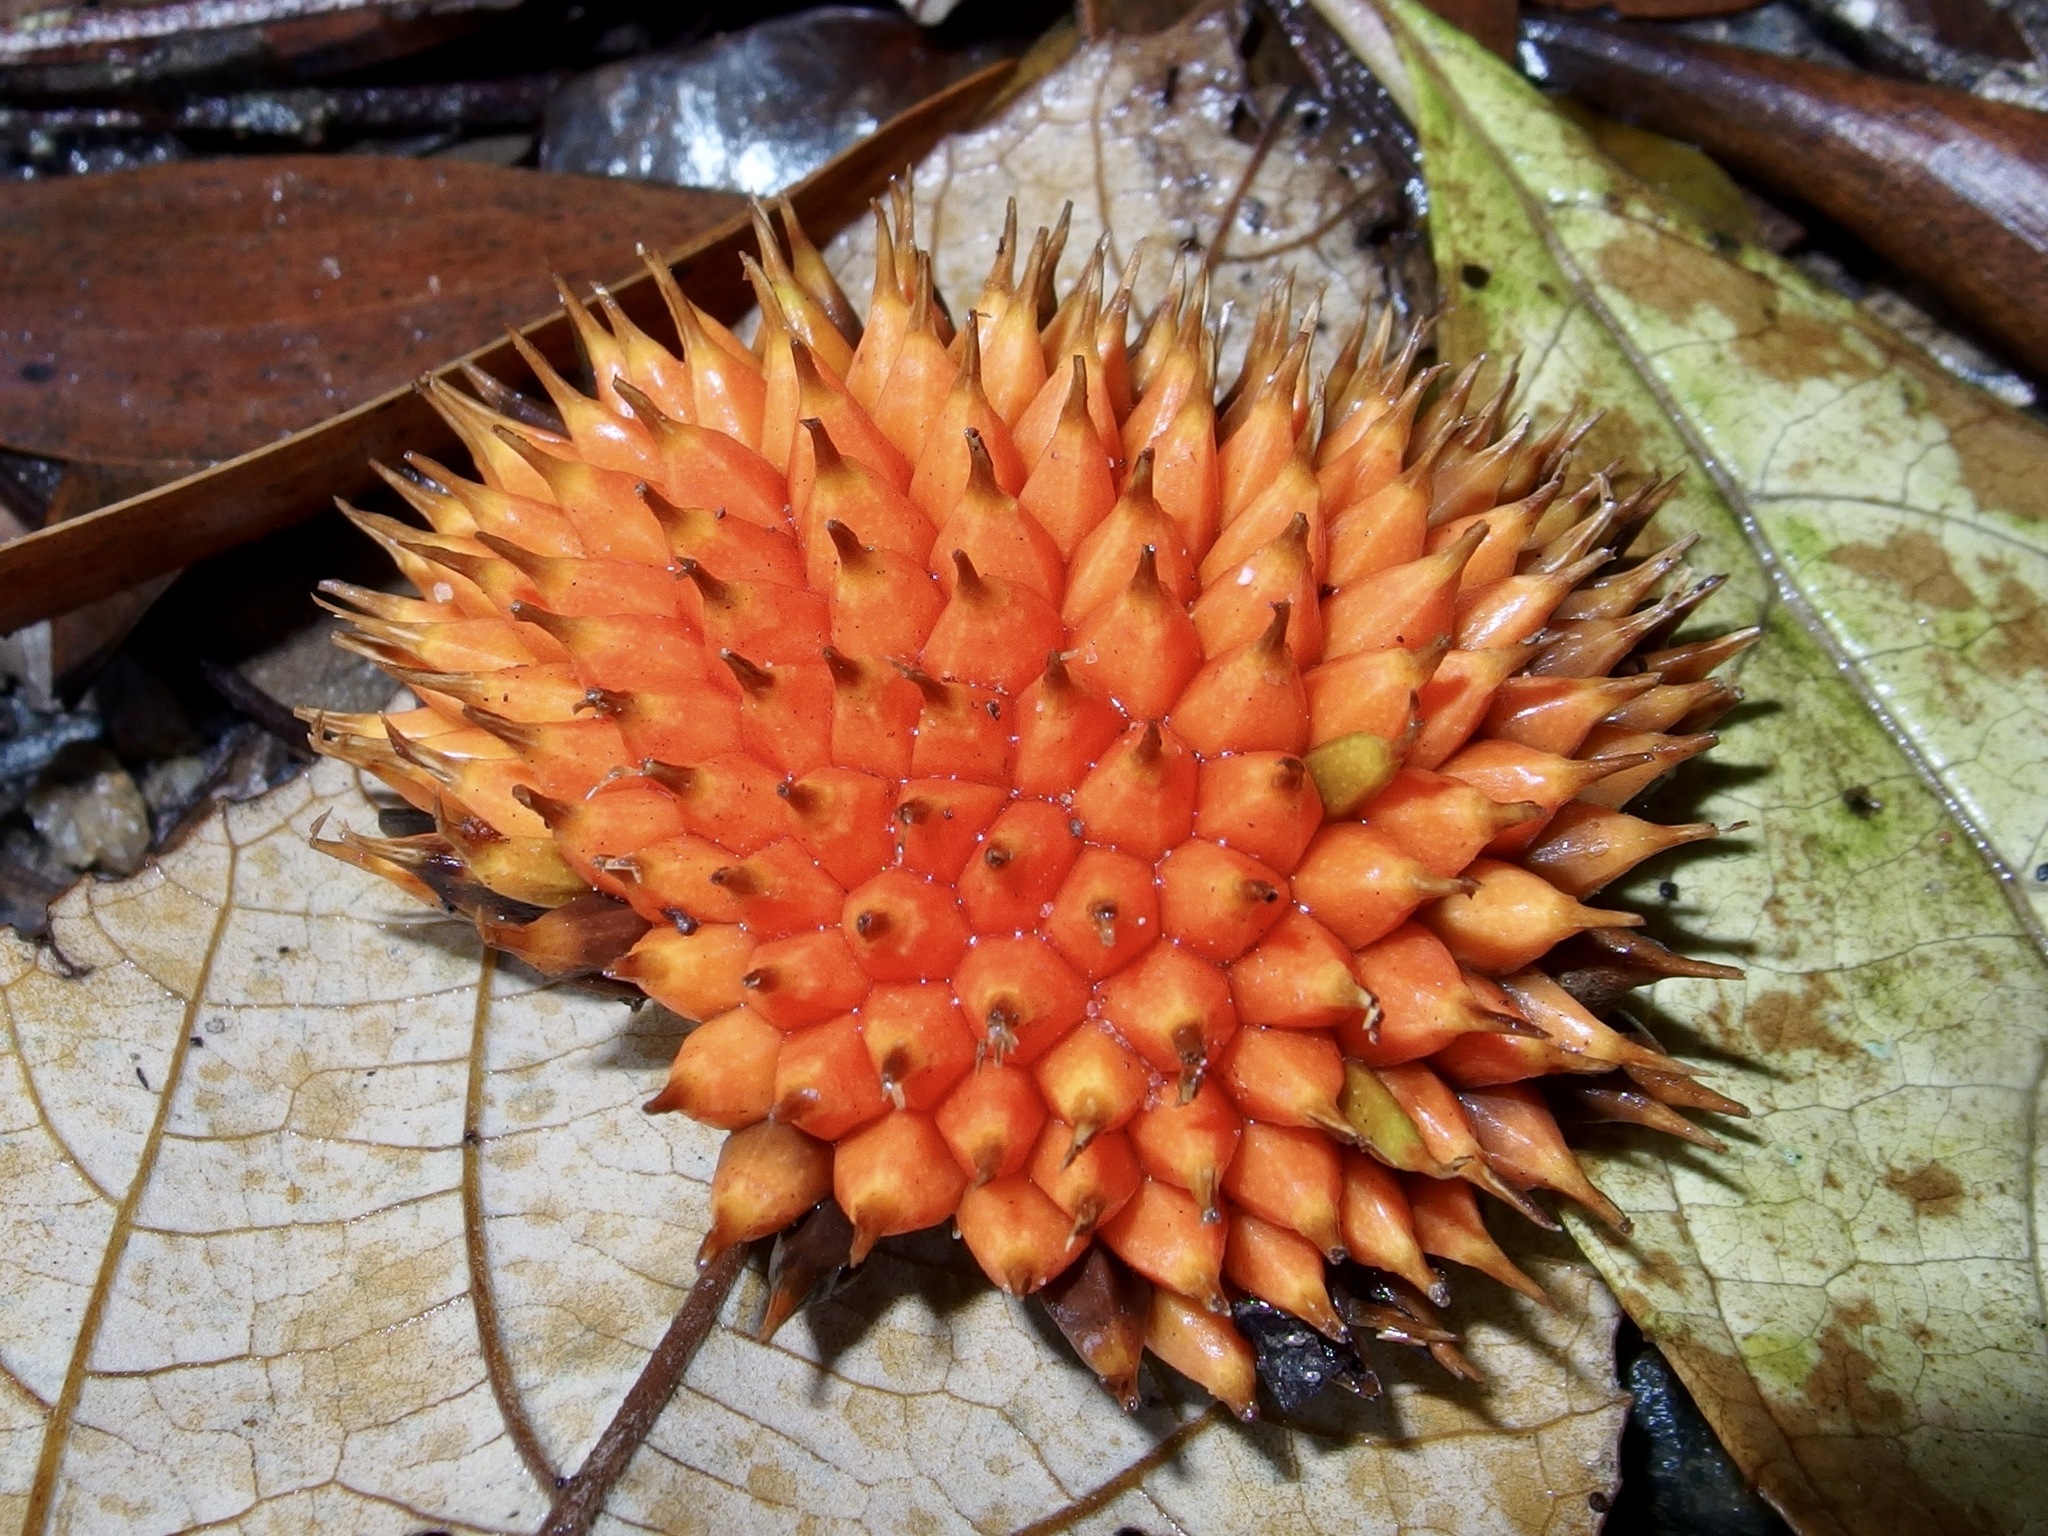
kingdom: Plantae
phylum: Tracheophyta
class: Liliopsida
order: Pandanales
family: Pandanaceae
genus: Benstonea
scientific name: Benstonea monticola
